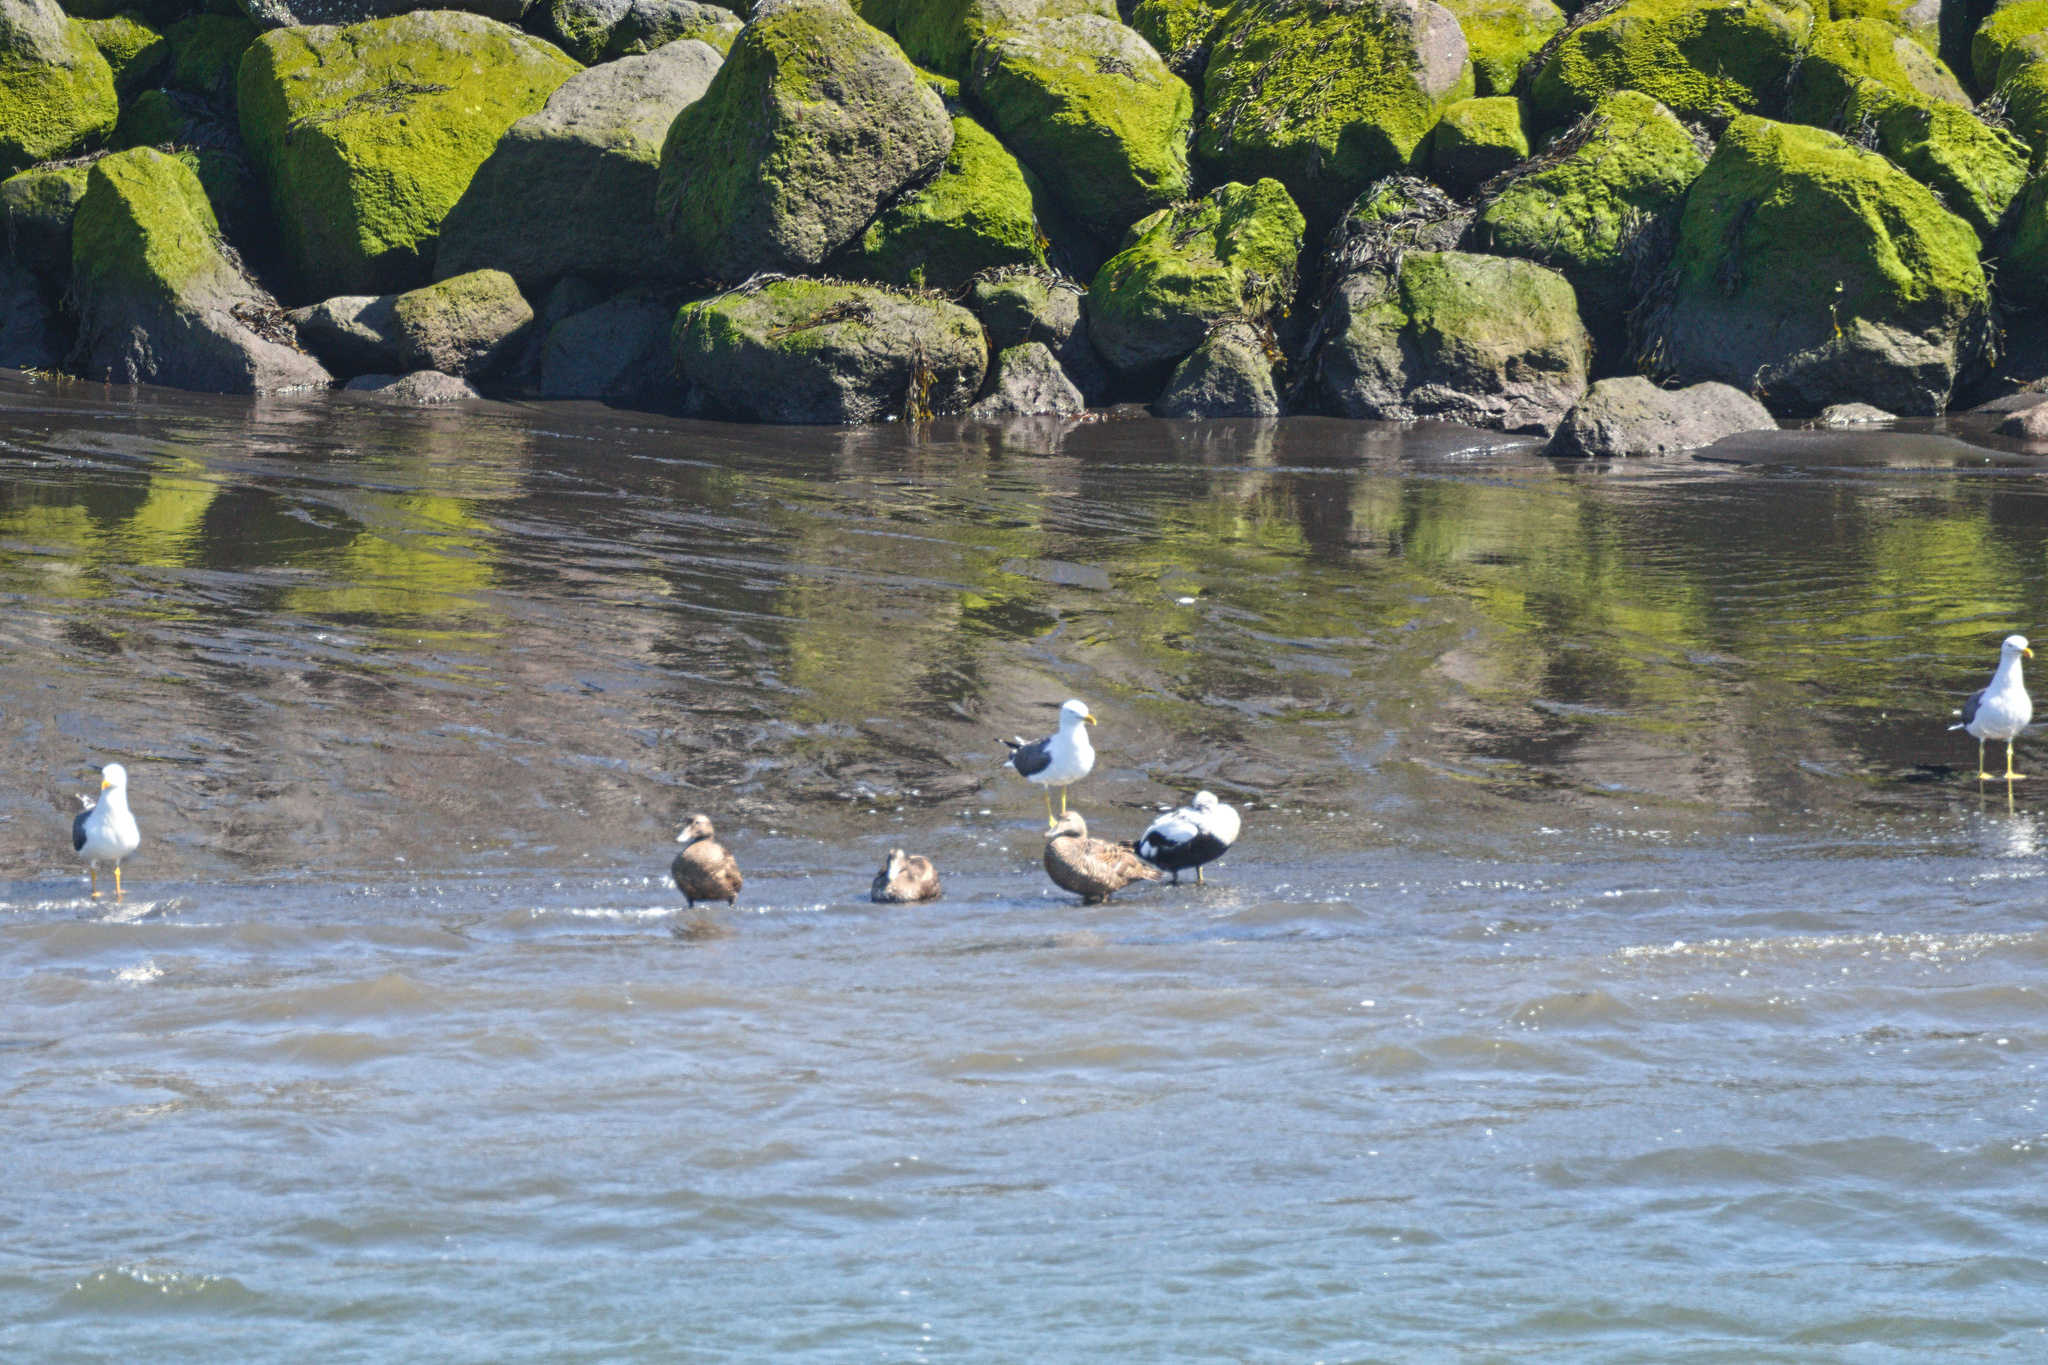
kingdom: Animalia
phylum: Chordata
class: Aves
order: Charadriiformes
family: Laridae
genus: Larus
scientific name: Larus fuscus
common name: Lesser black-backed gull
